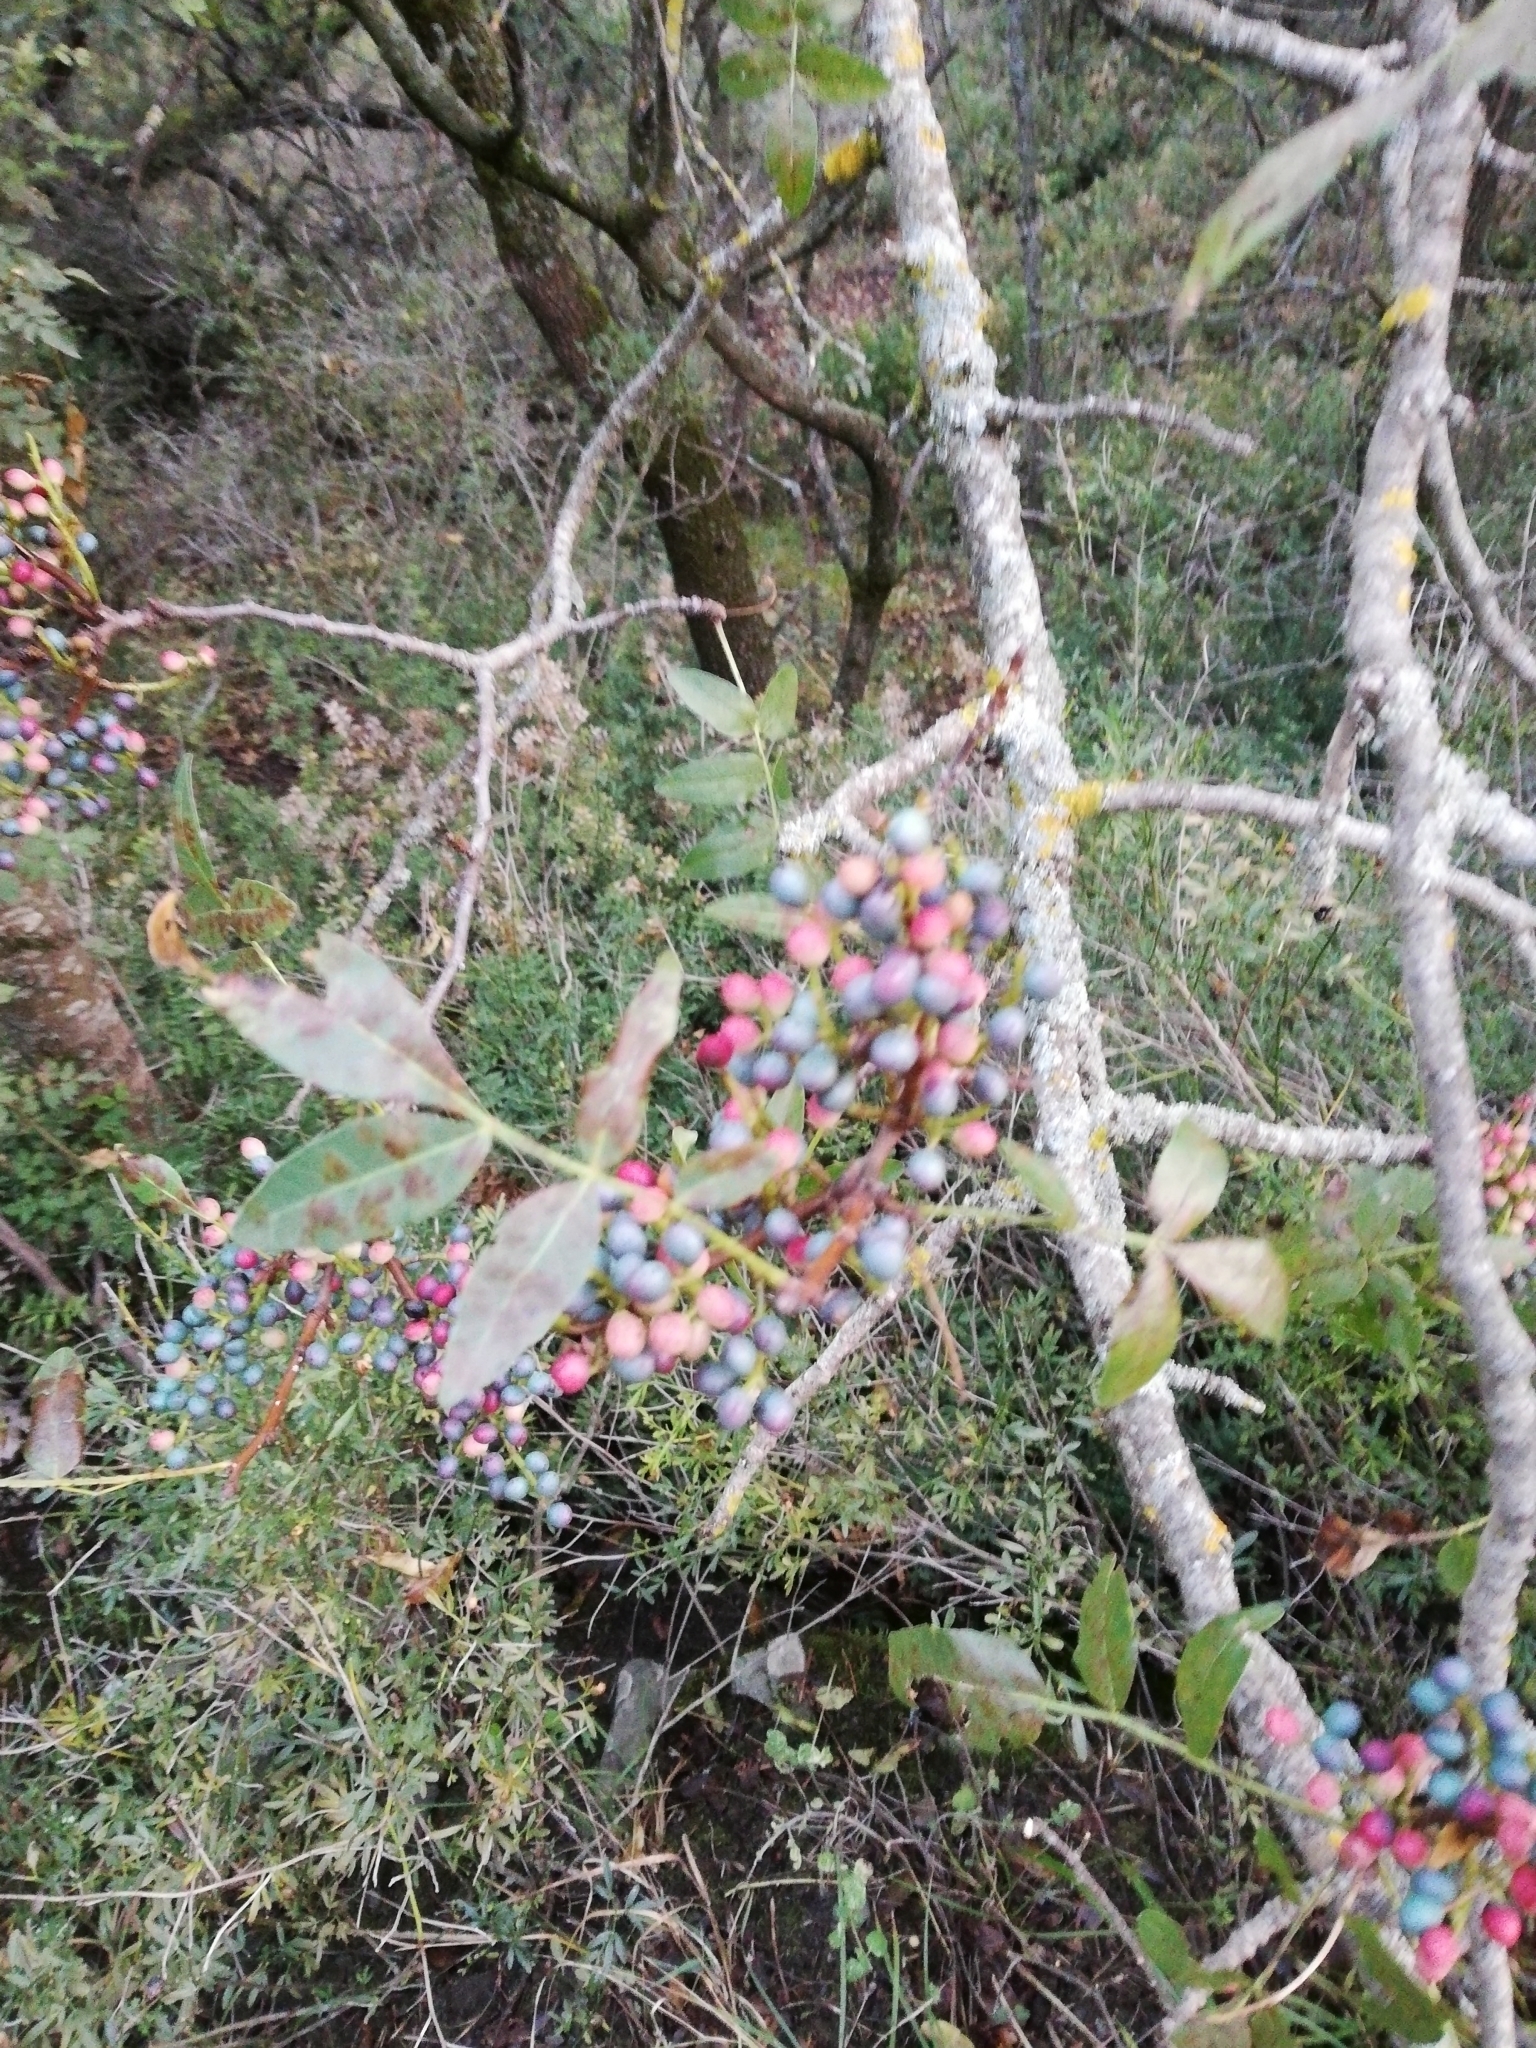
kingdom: Plantae
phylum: Tracheophyta
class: Magnoliopsida
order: Sapindales
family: Anacardiaceae
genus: Pistacia
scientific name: Pistacia atlantica
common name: Mt. atlas mastic tree
